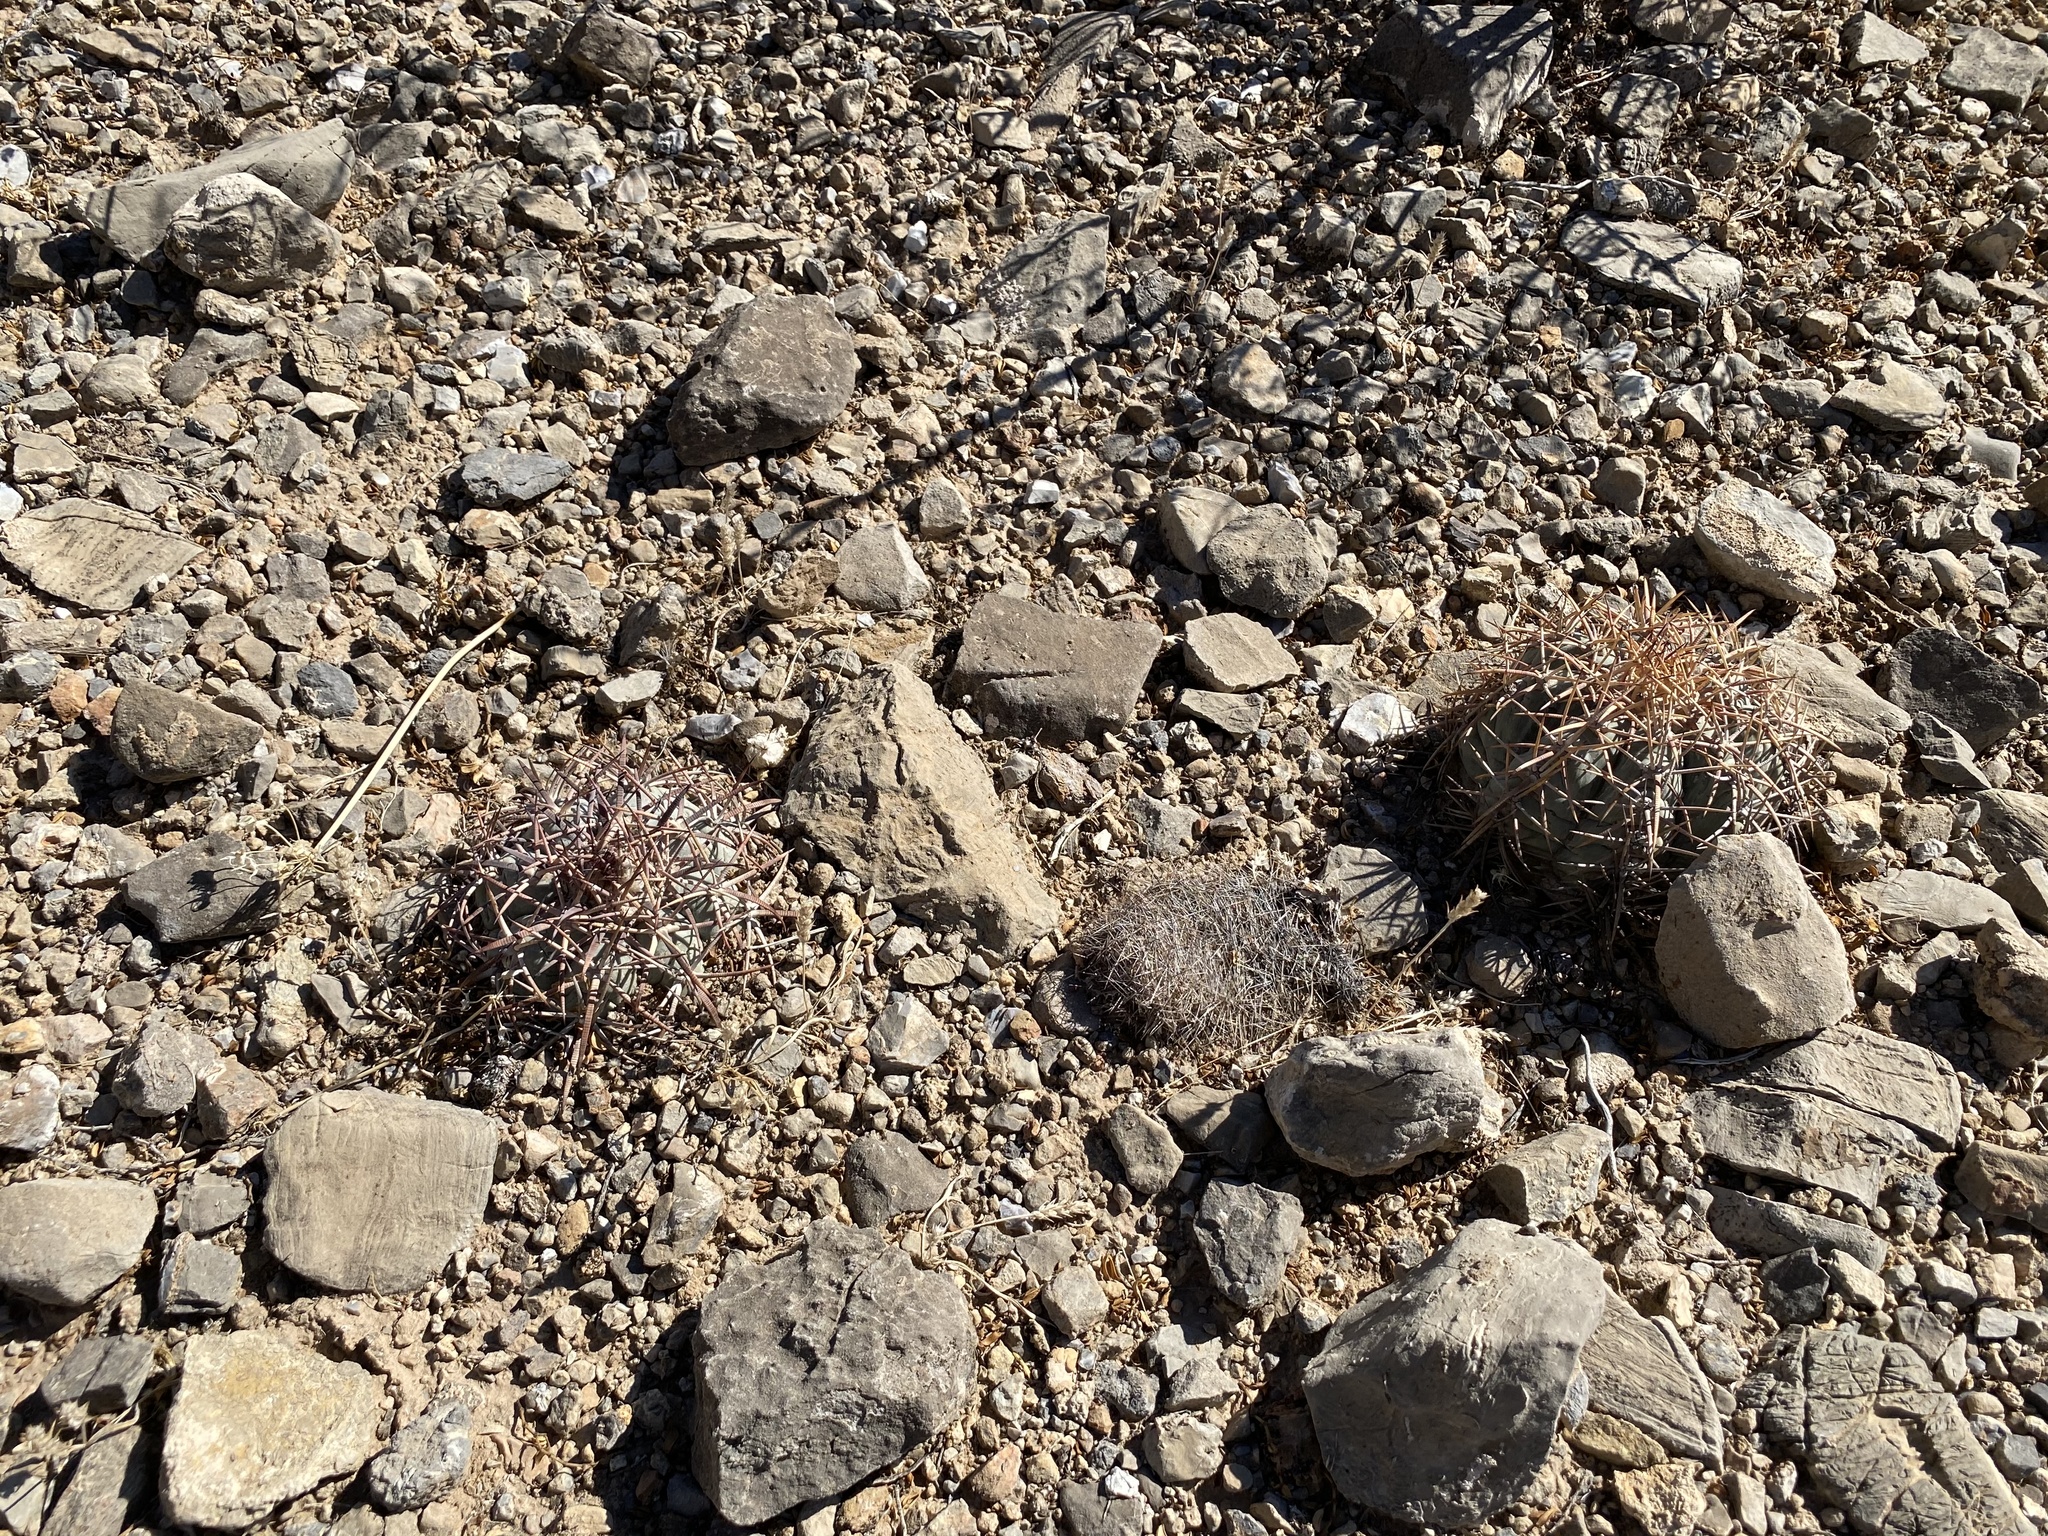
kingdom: Plantae
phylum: Tracheophyta
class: Magnoliopsida
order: Caryophyllales
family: Cactaceae
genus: Echinocactus
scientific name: Echinocactus horizonthalonius
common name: Devilshead
